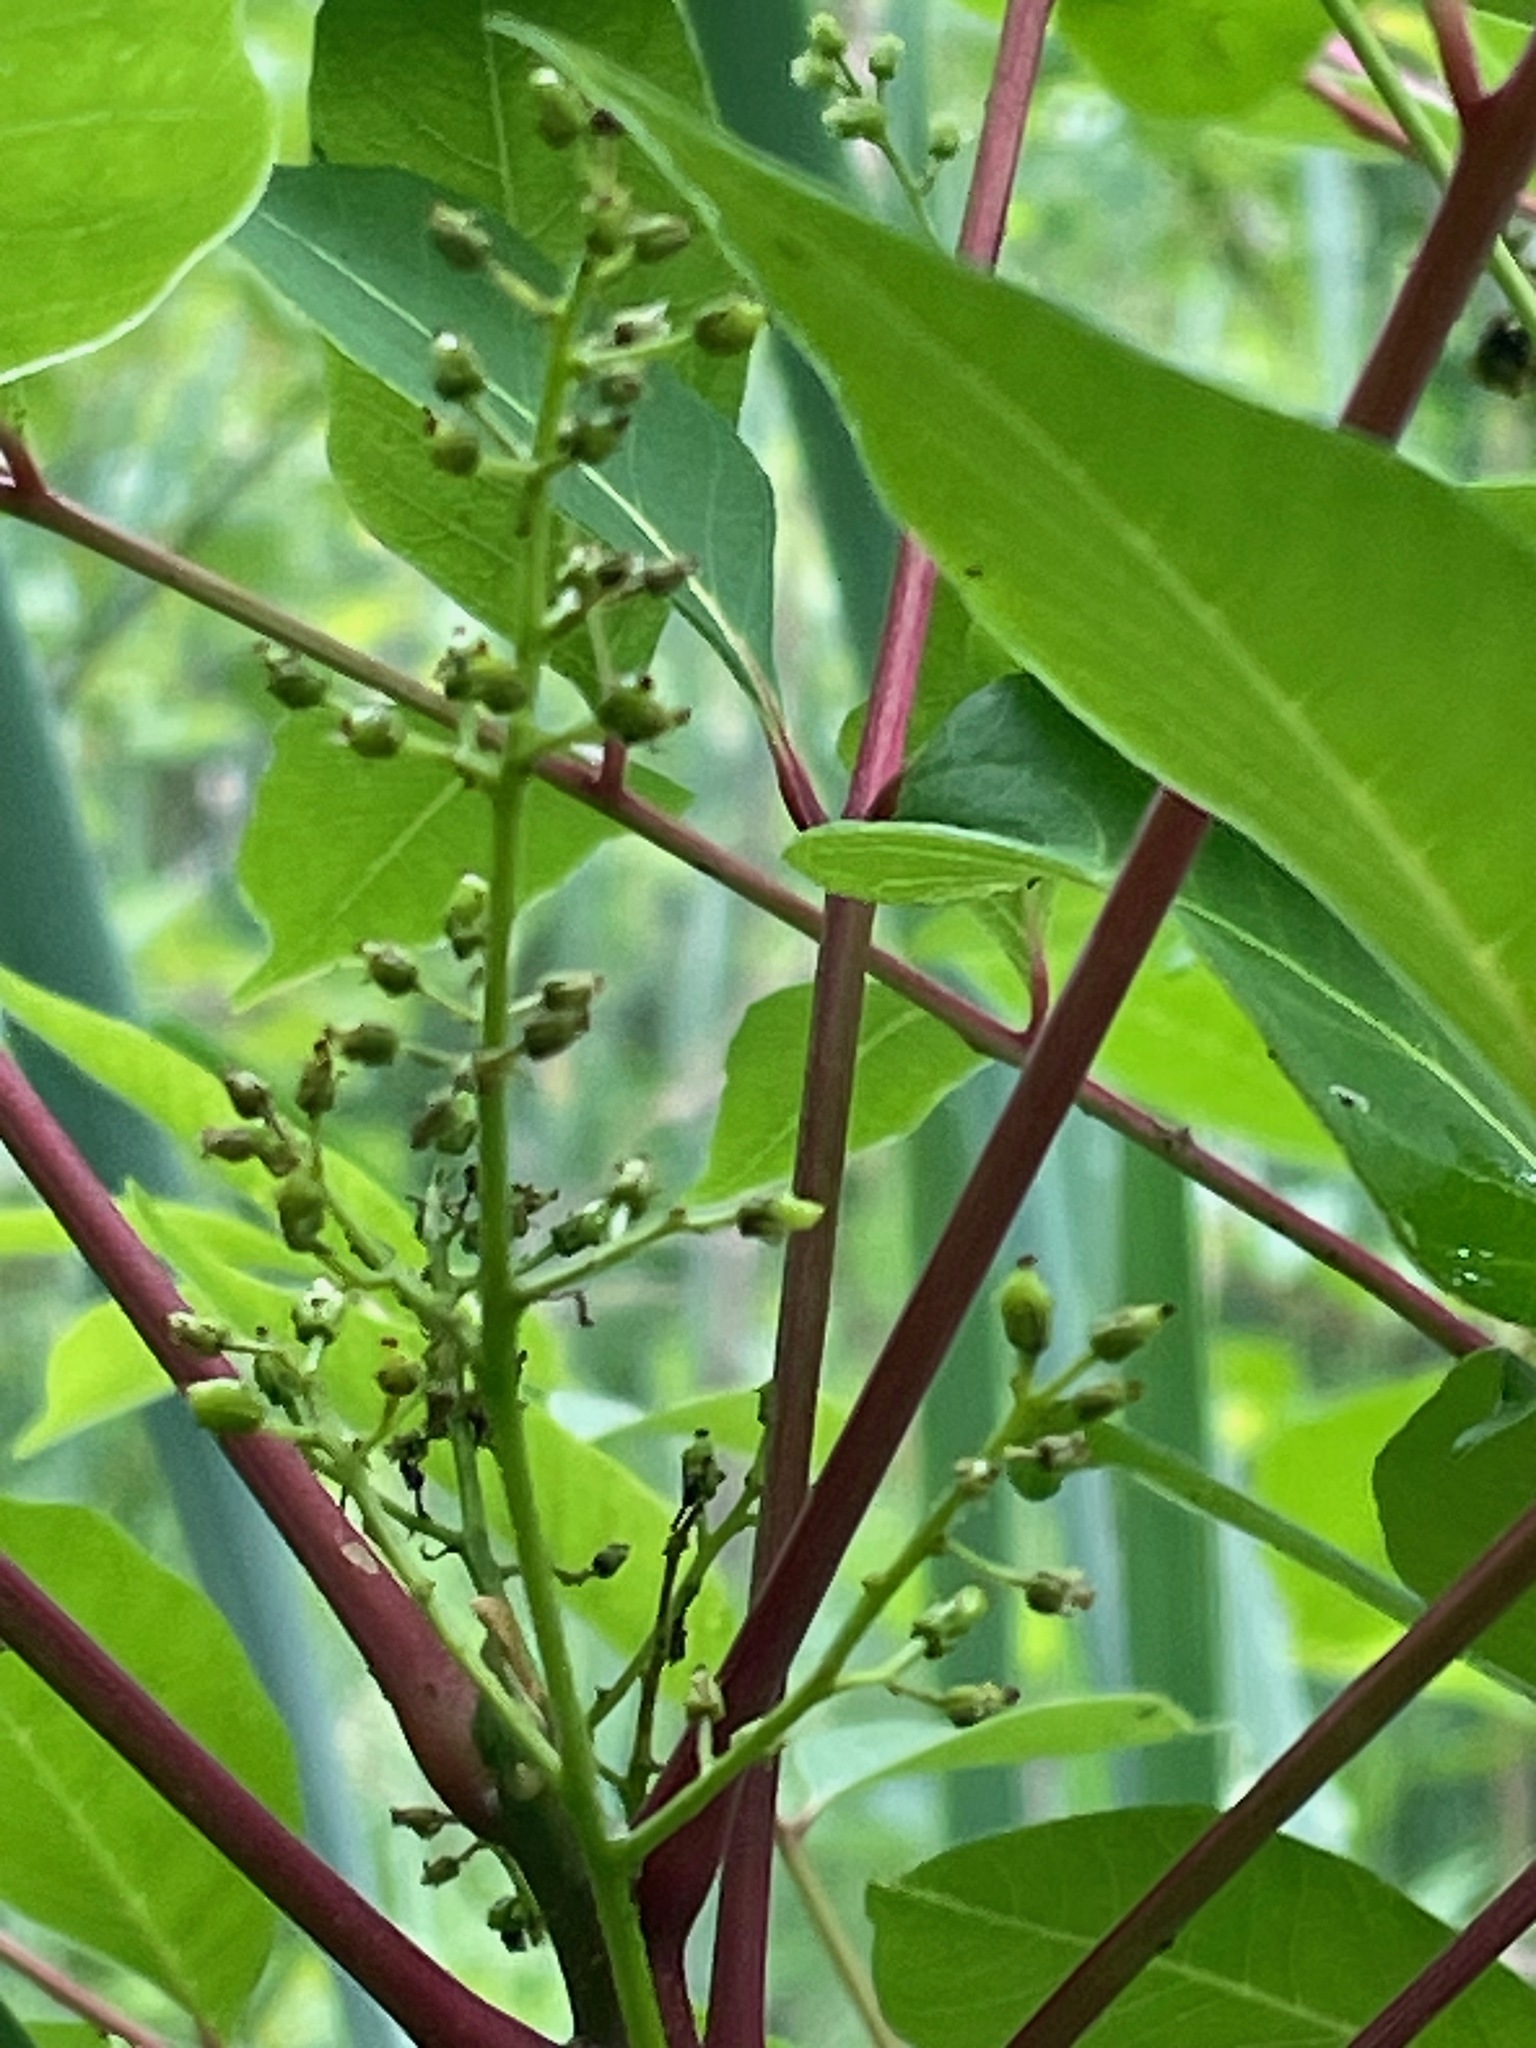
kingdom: Plantae
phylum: Tracheophyta
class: Magnoliopsida
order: Sapindales
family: Anacardiaceae
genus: Toxicodendron
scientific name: Toxicodendron vernix
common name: Poison sumac
